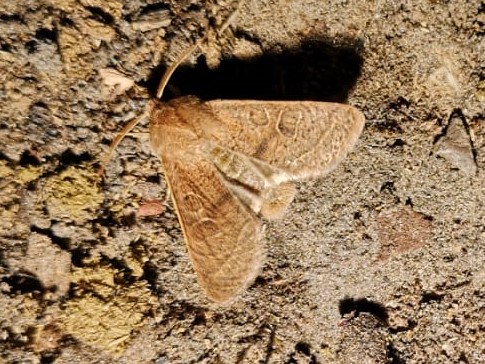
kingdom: Animalia
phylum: Arthropoda
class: Insecta
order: Lepidoptera
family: Noctuidae
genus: Orthosia
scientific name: Orthosia cerasi
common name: Common quaker
